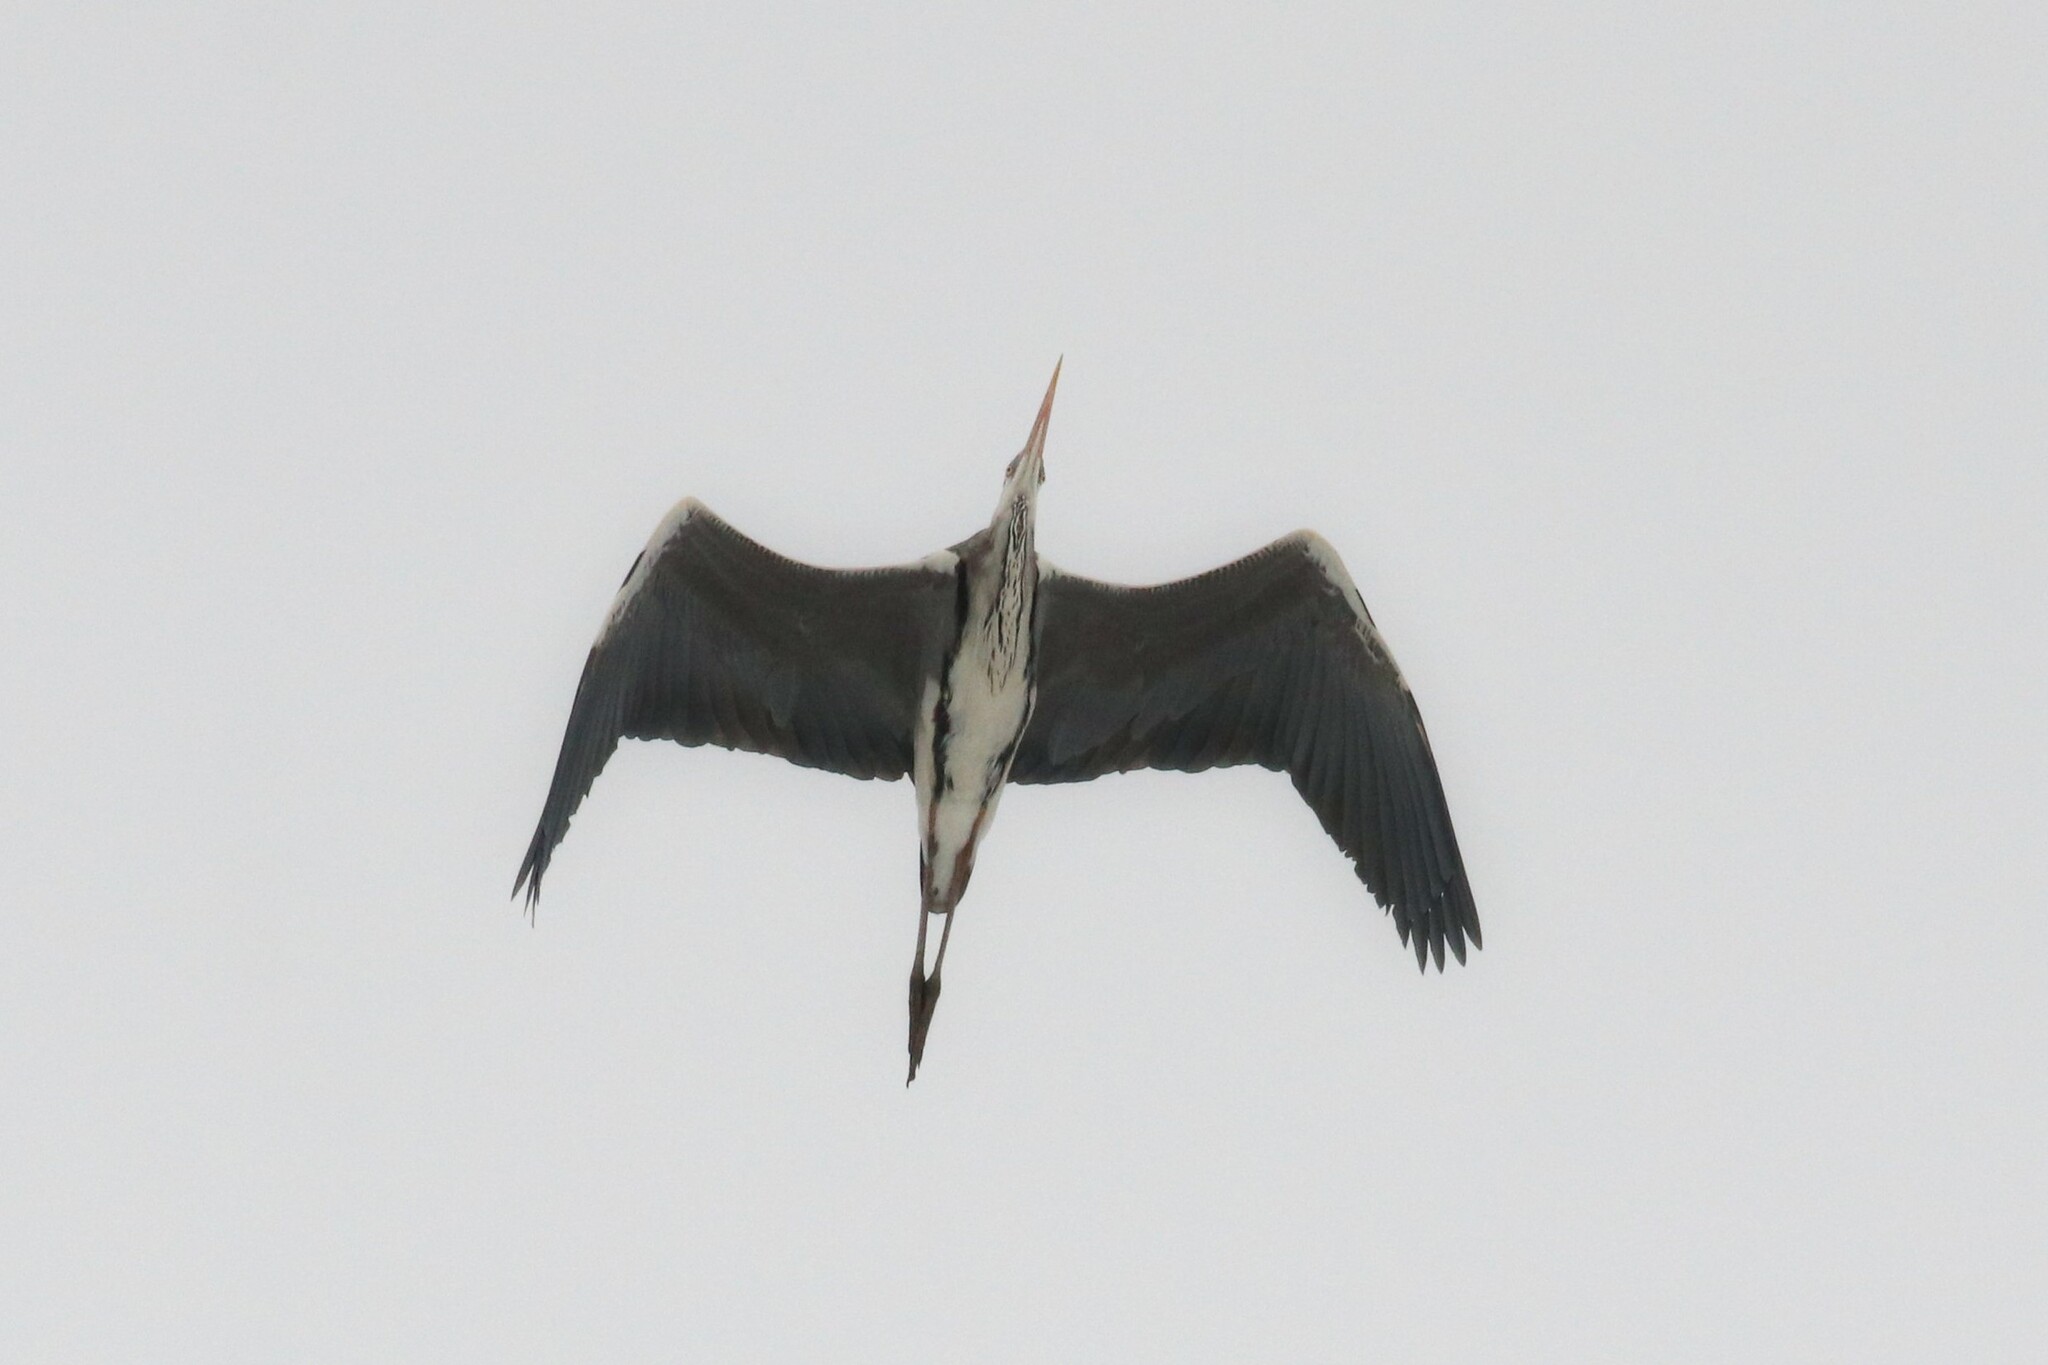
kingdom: Animalia
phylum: Chordata
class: Aves
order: Pelecaniformes
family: Ardeidae
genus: Ardea
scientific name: Ardea cinerea
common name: Grey heron
